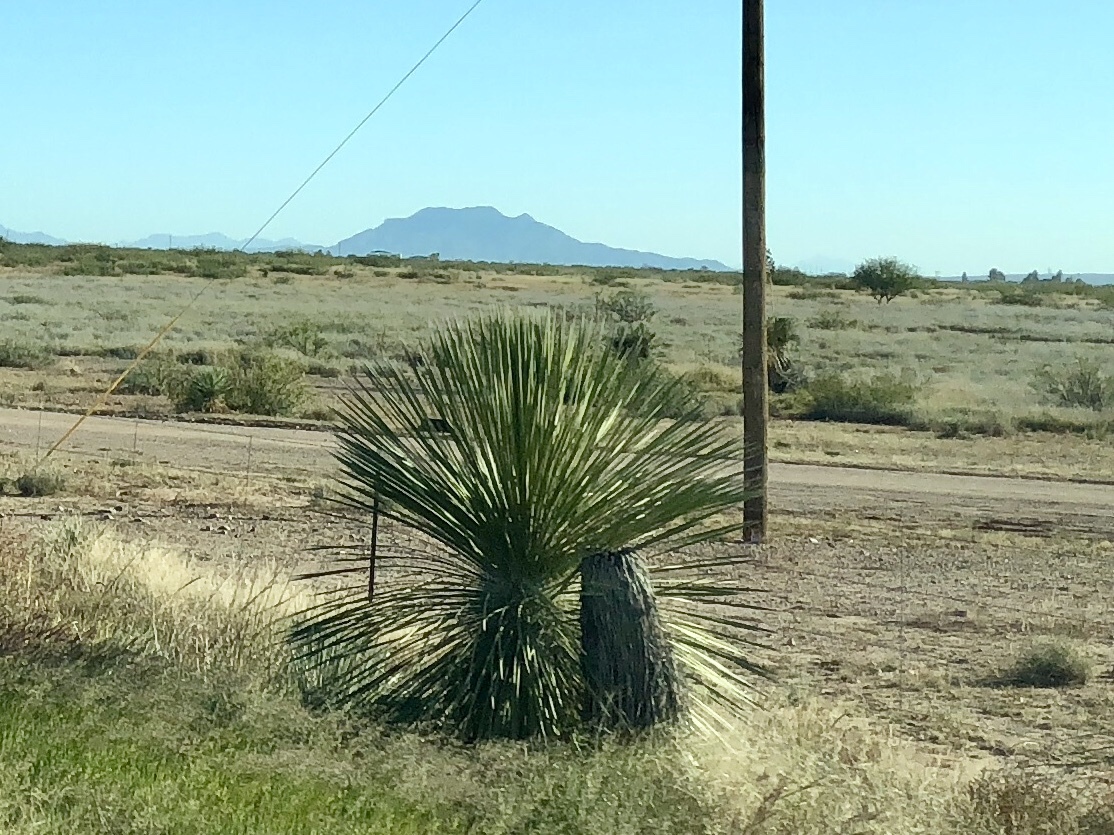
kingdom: Plantae
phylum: Tracheophyta
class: Liliopsida
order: Asparagales
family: Asparagaceae
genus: Yucca
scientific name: Yucca elata
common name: Palmella
